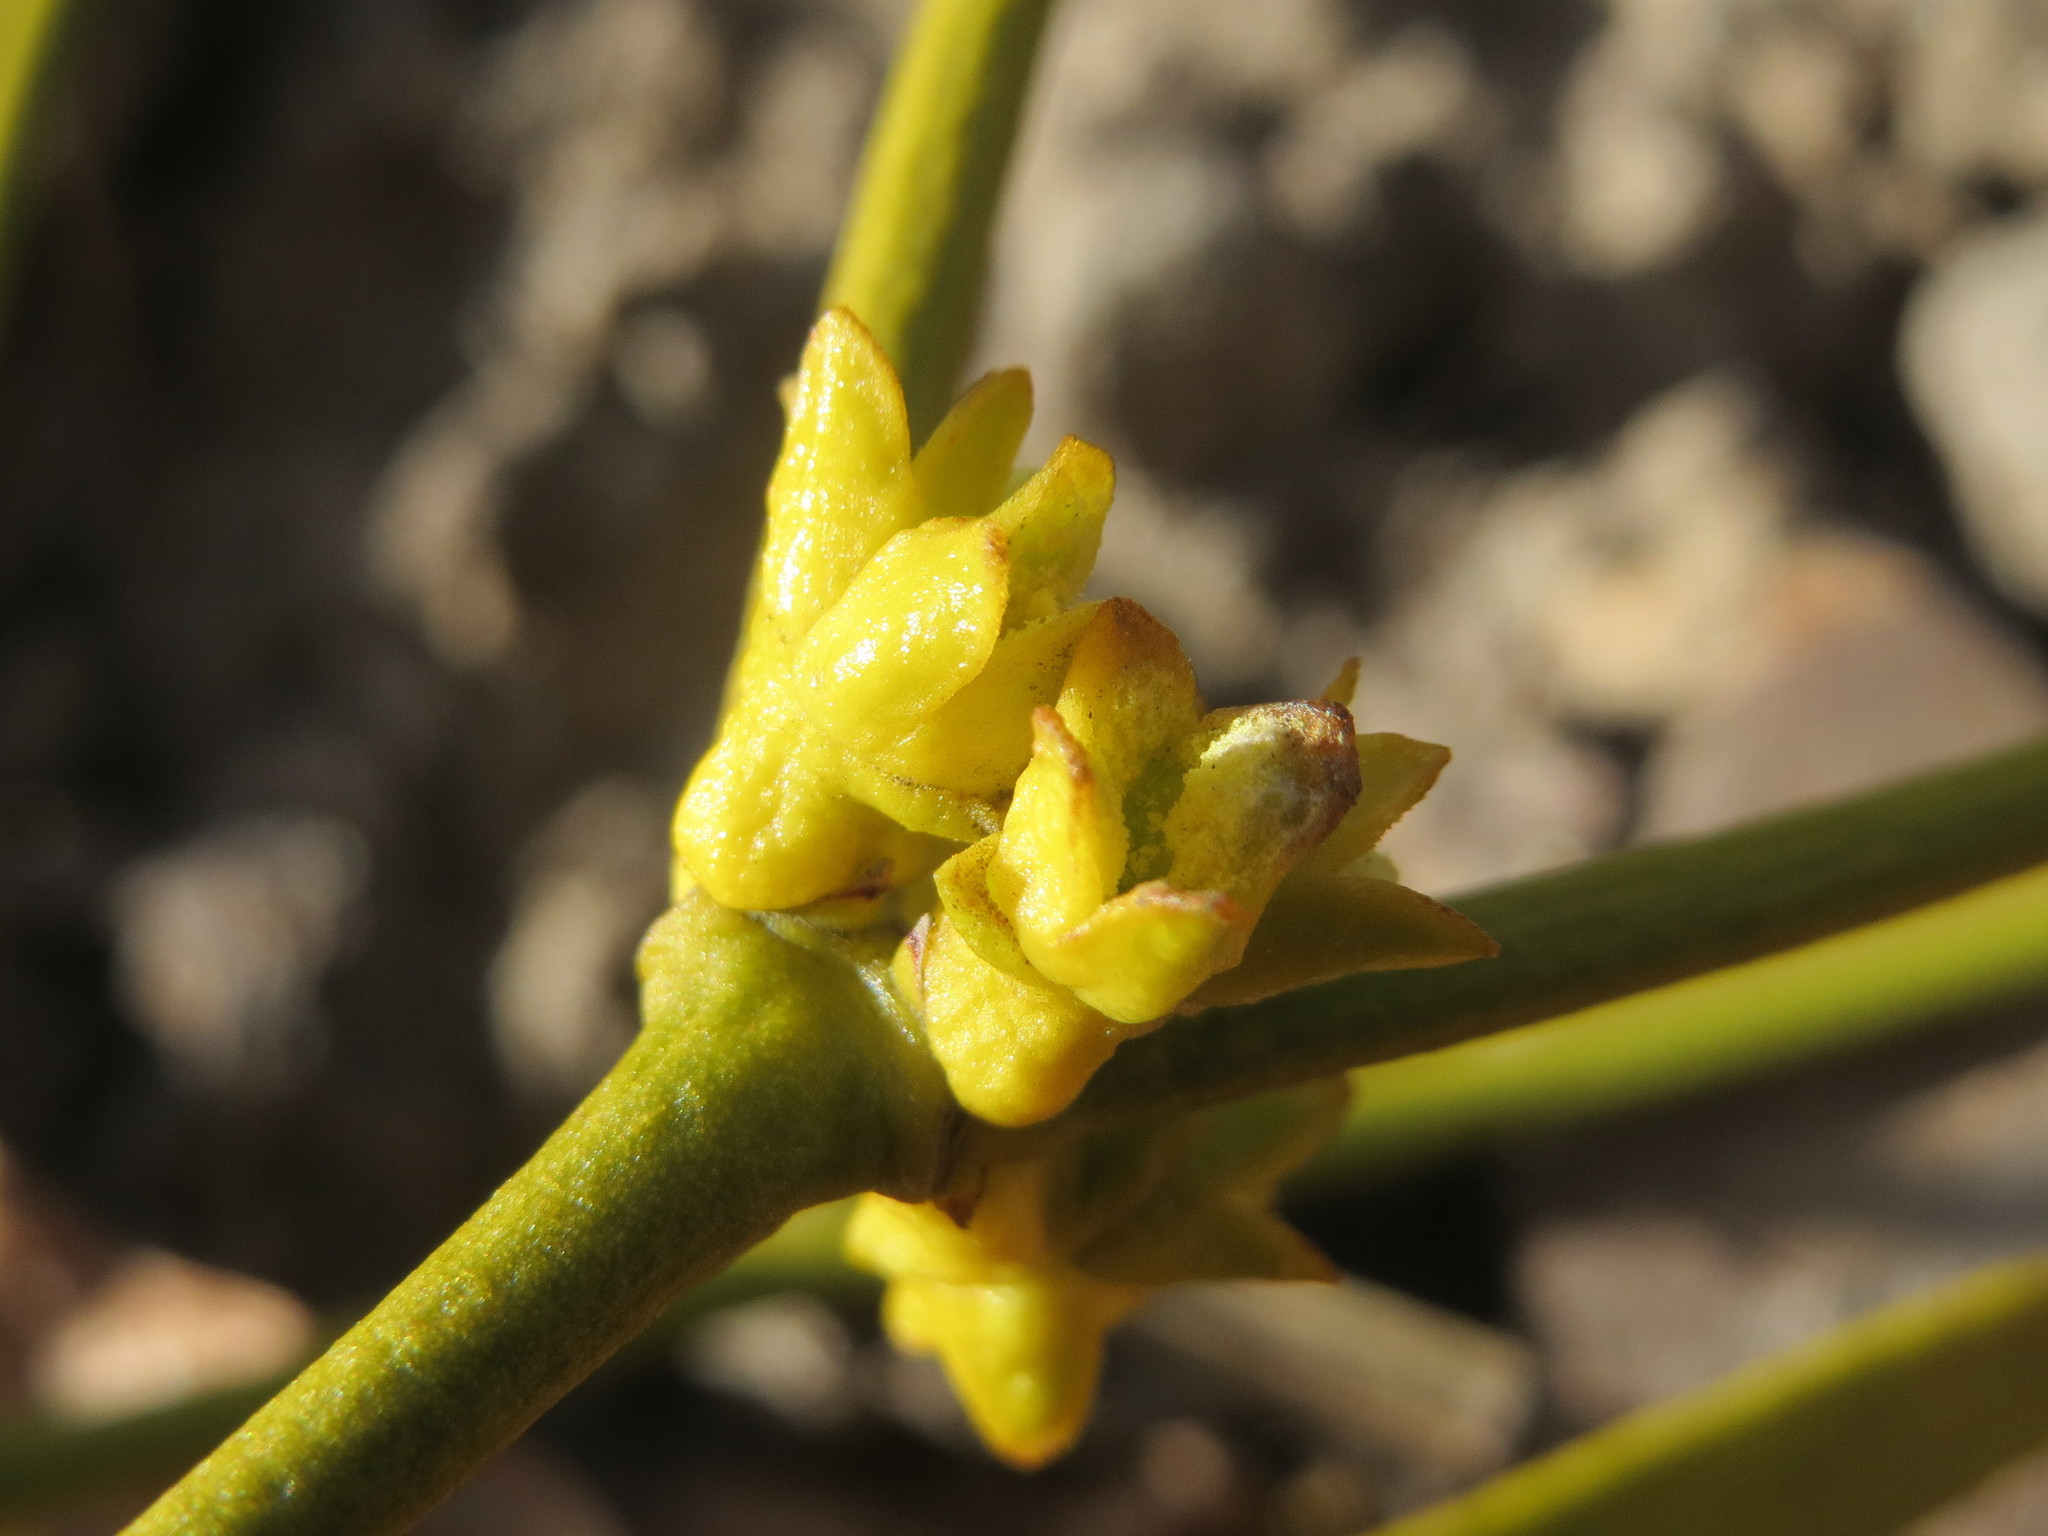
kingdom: Plantae
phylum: Tracheophyta
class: Magnoliopsida
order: Santalales
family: Viscaceae
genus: Viscum
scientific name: Viscum album
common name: Mistletoe
